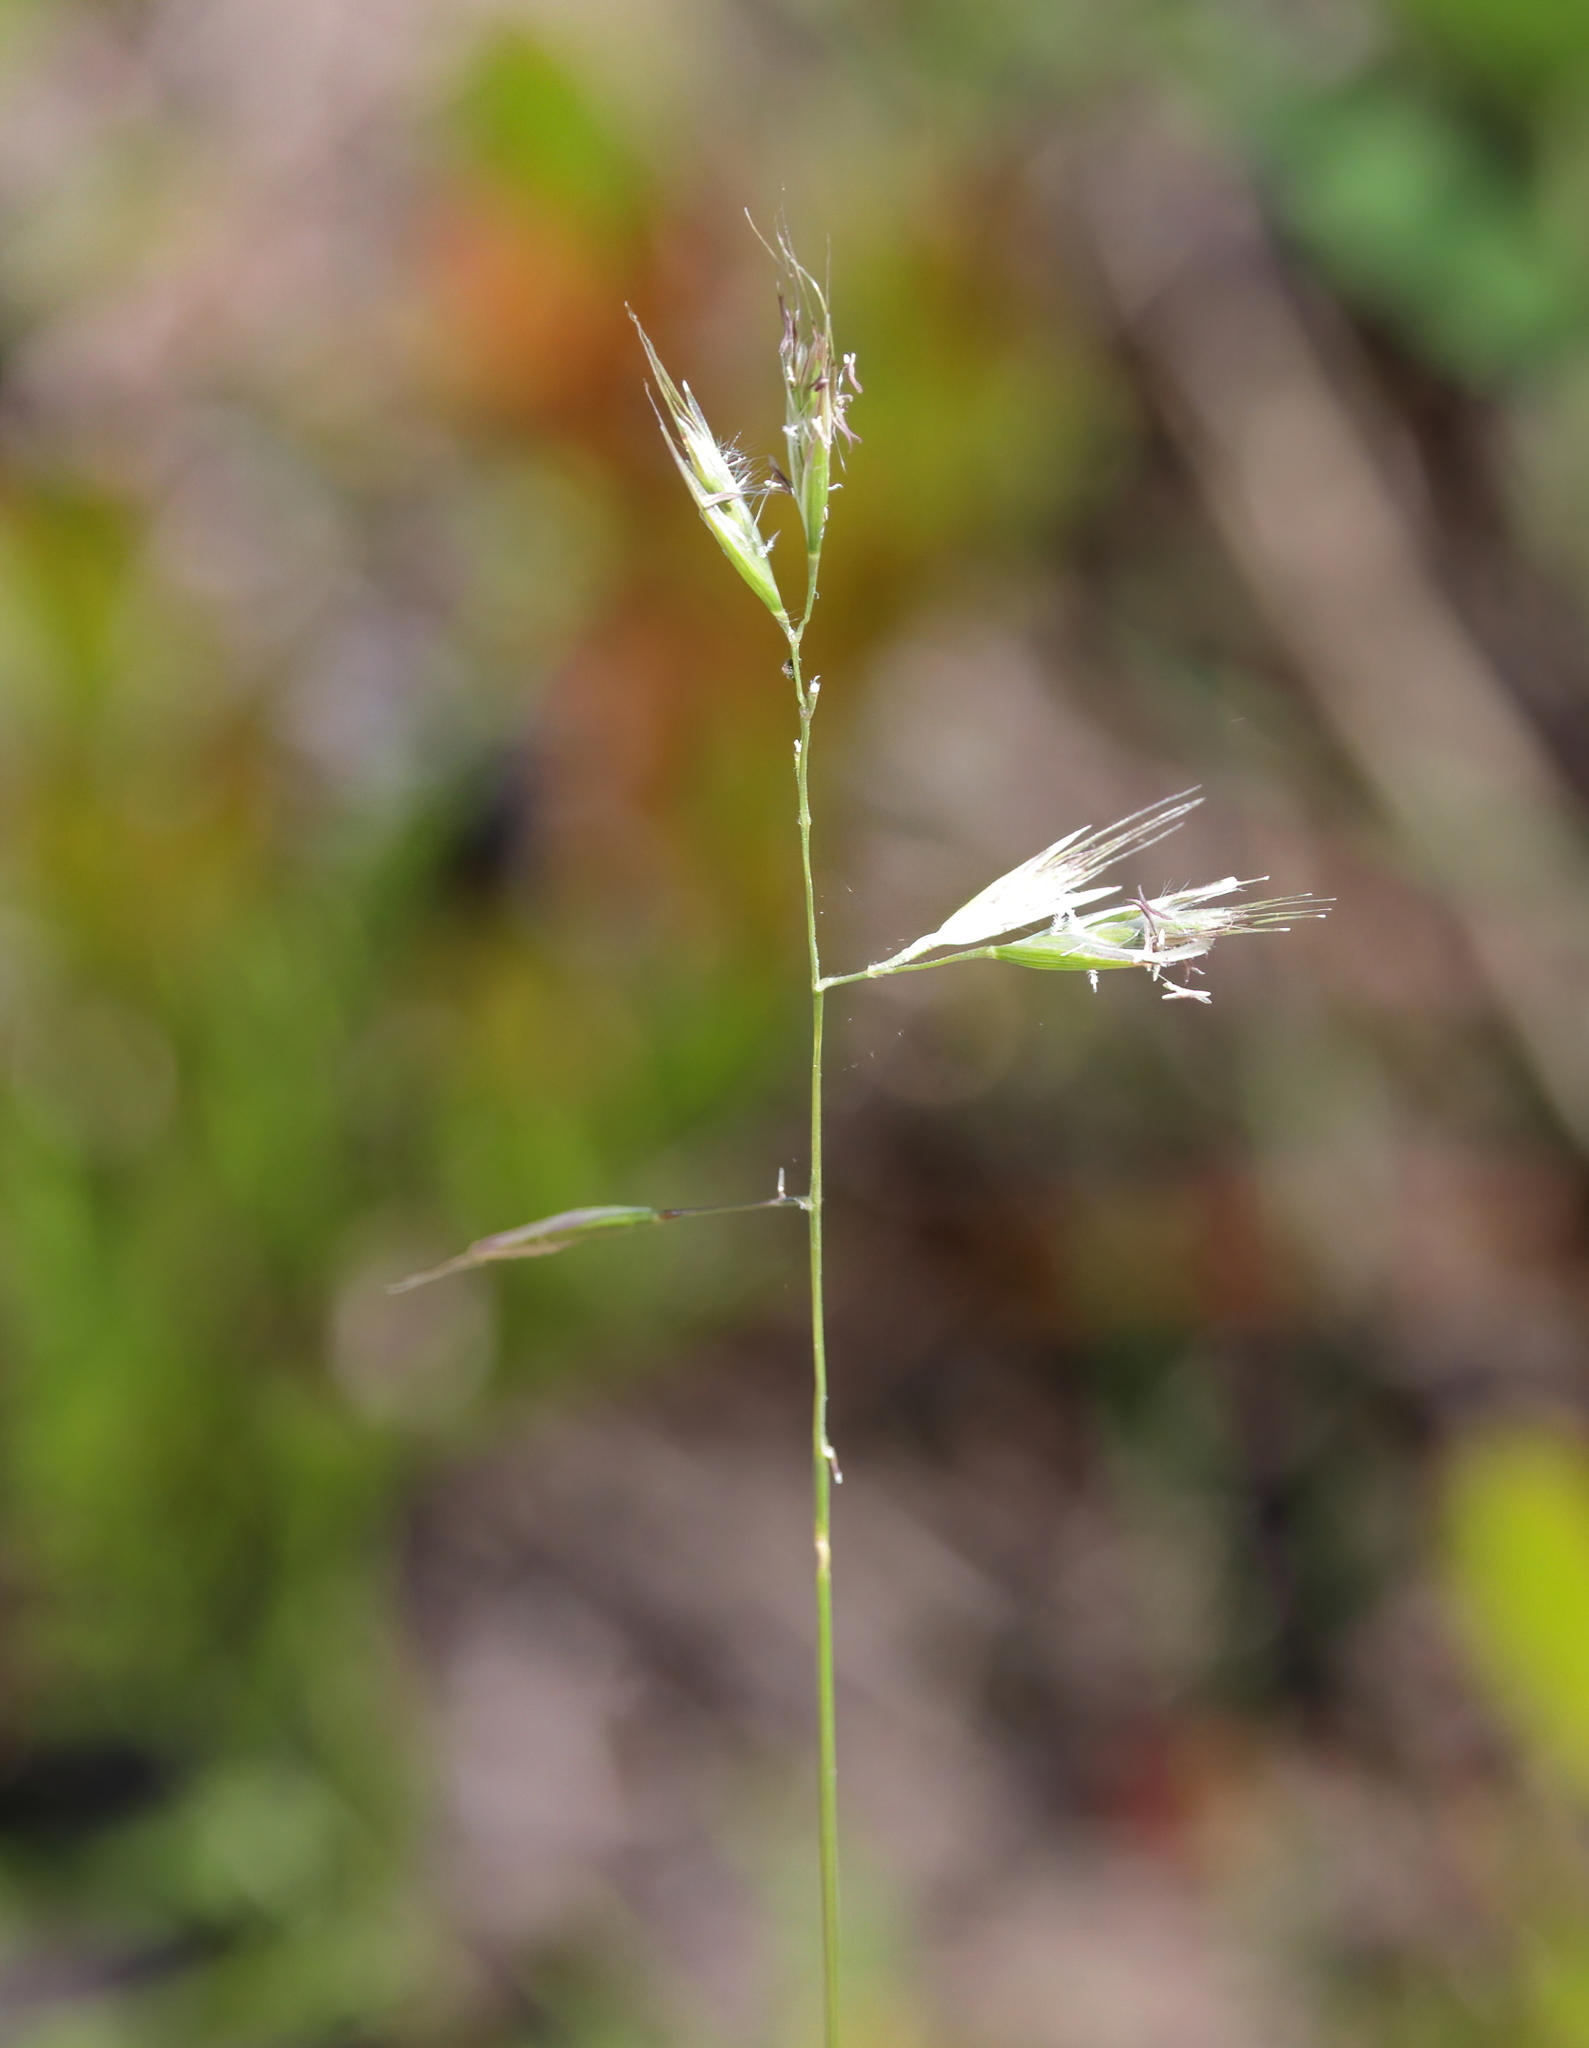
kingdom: Plantae
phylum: Tracheophyta
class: Liliopsida
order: Poales
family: Poaceae
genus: Danthonia
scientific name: Danthonia sericea
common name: Downy danthonia
